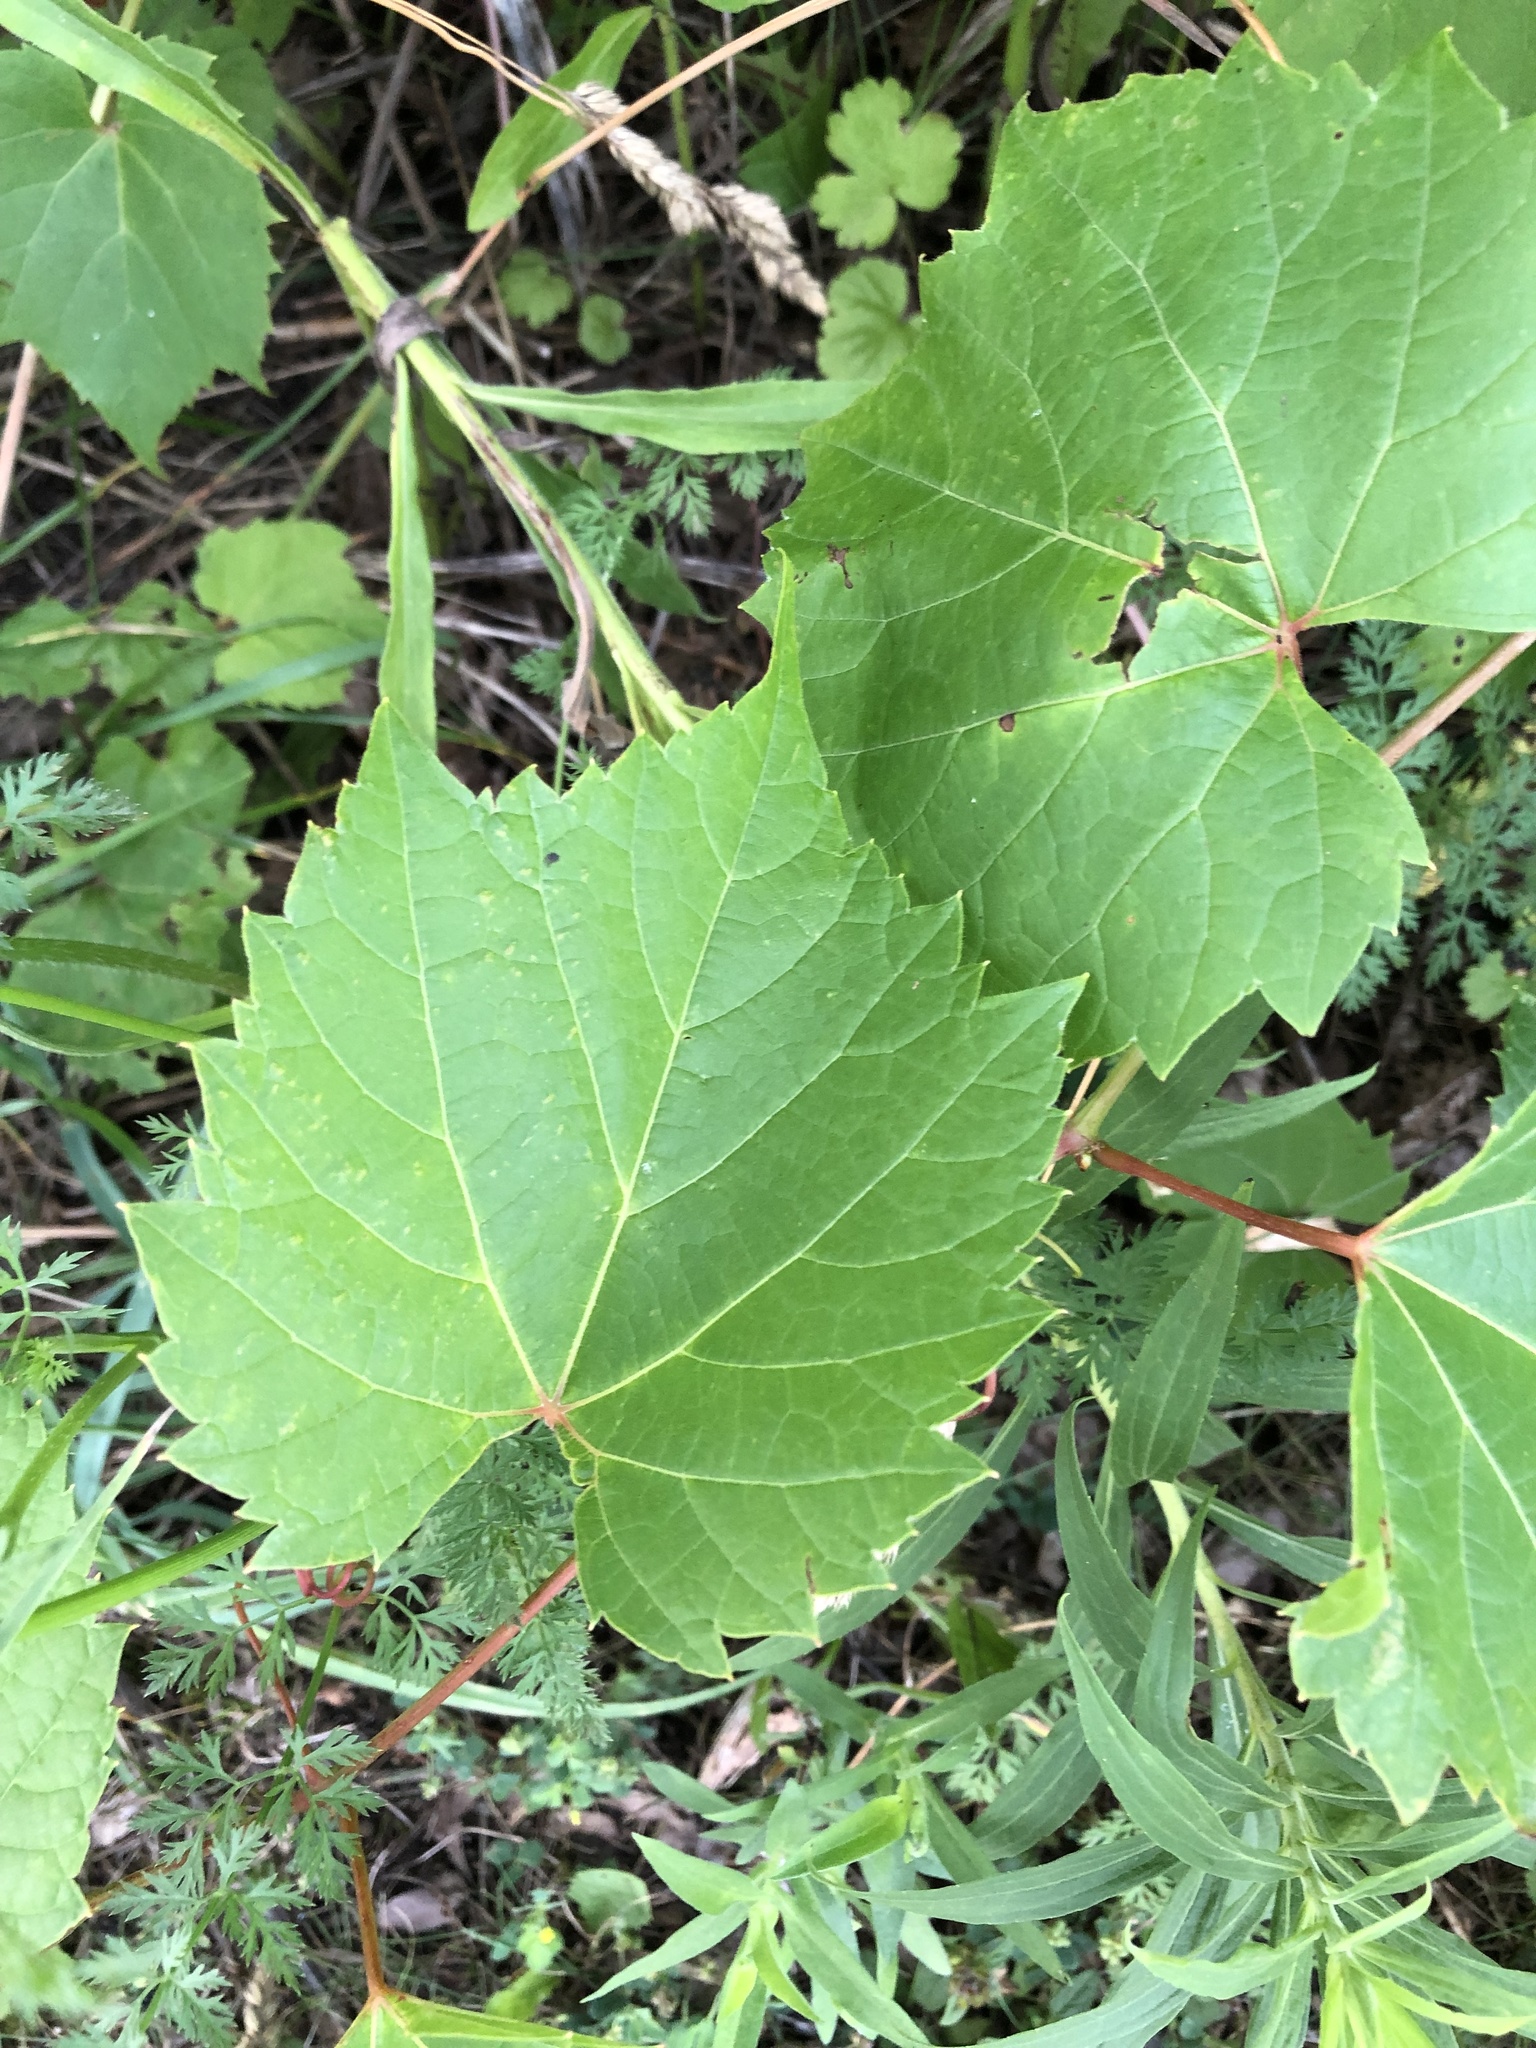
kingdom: Plantae
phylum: Tracheophyta
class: Magnoliopsida
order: Vitales
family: Vitaceae
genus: Vitis
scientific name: Vitis riparia
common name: Frost grape
